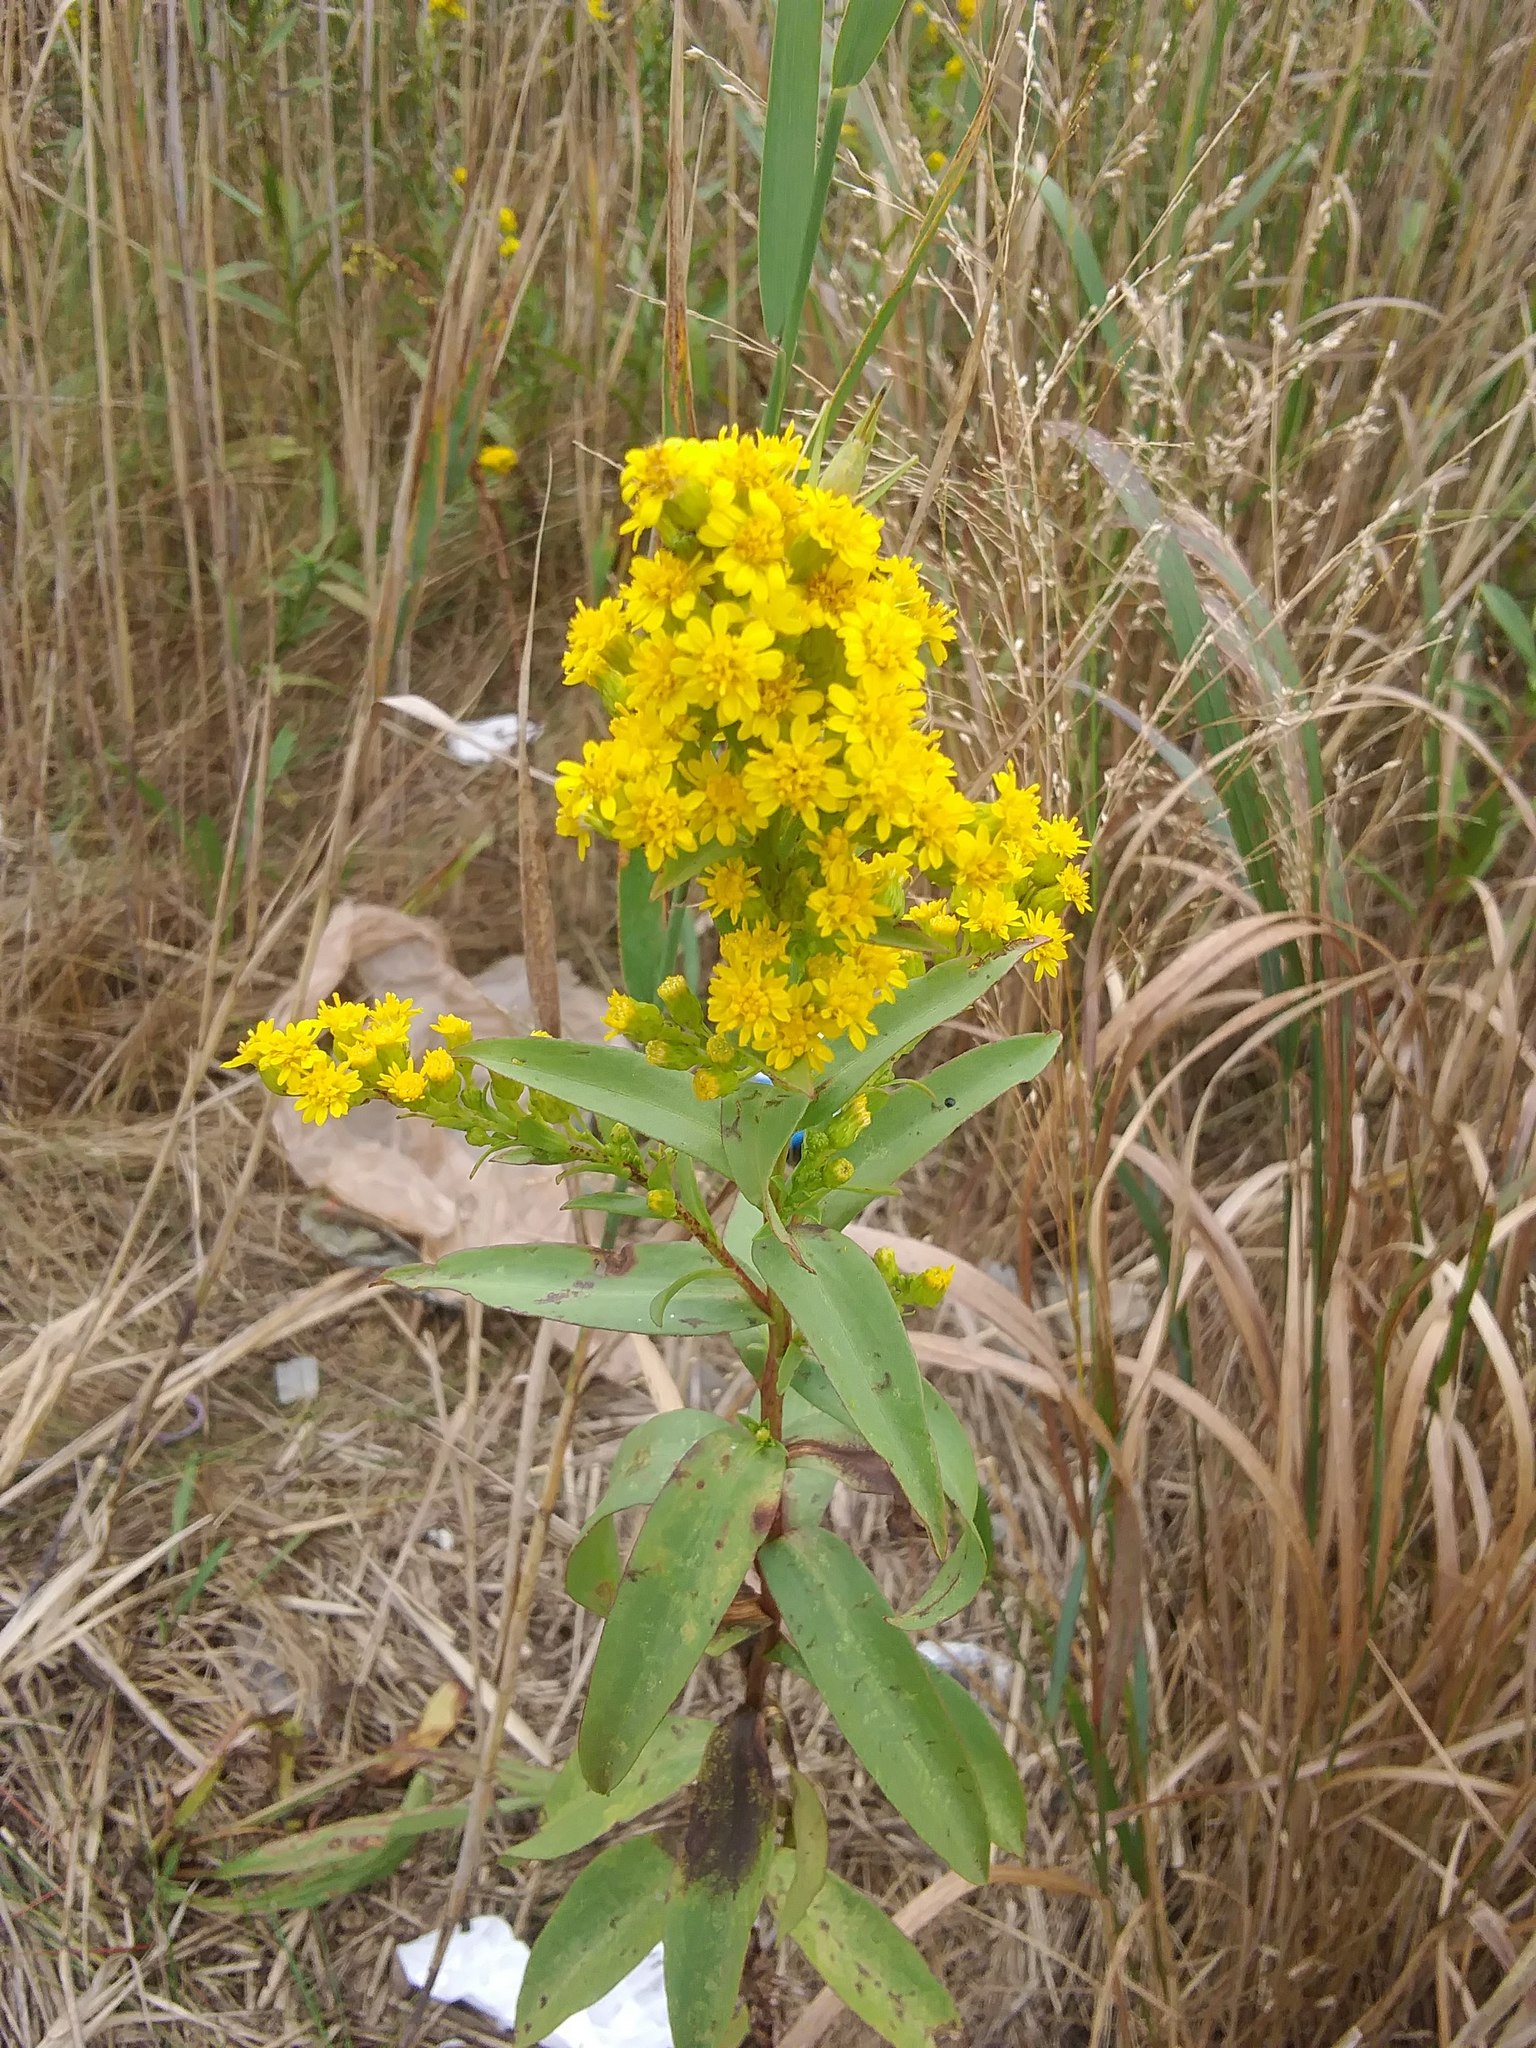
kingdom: Plantae
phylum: Tracheophyta
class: Magnoliopsida
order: Asterales
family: Asteraceae
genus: Solidago
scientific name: Solidago sempervirens
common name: Salt-marsh goldenrod
